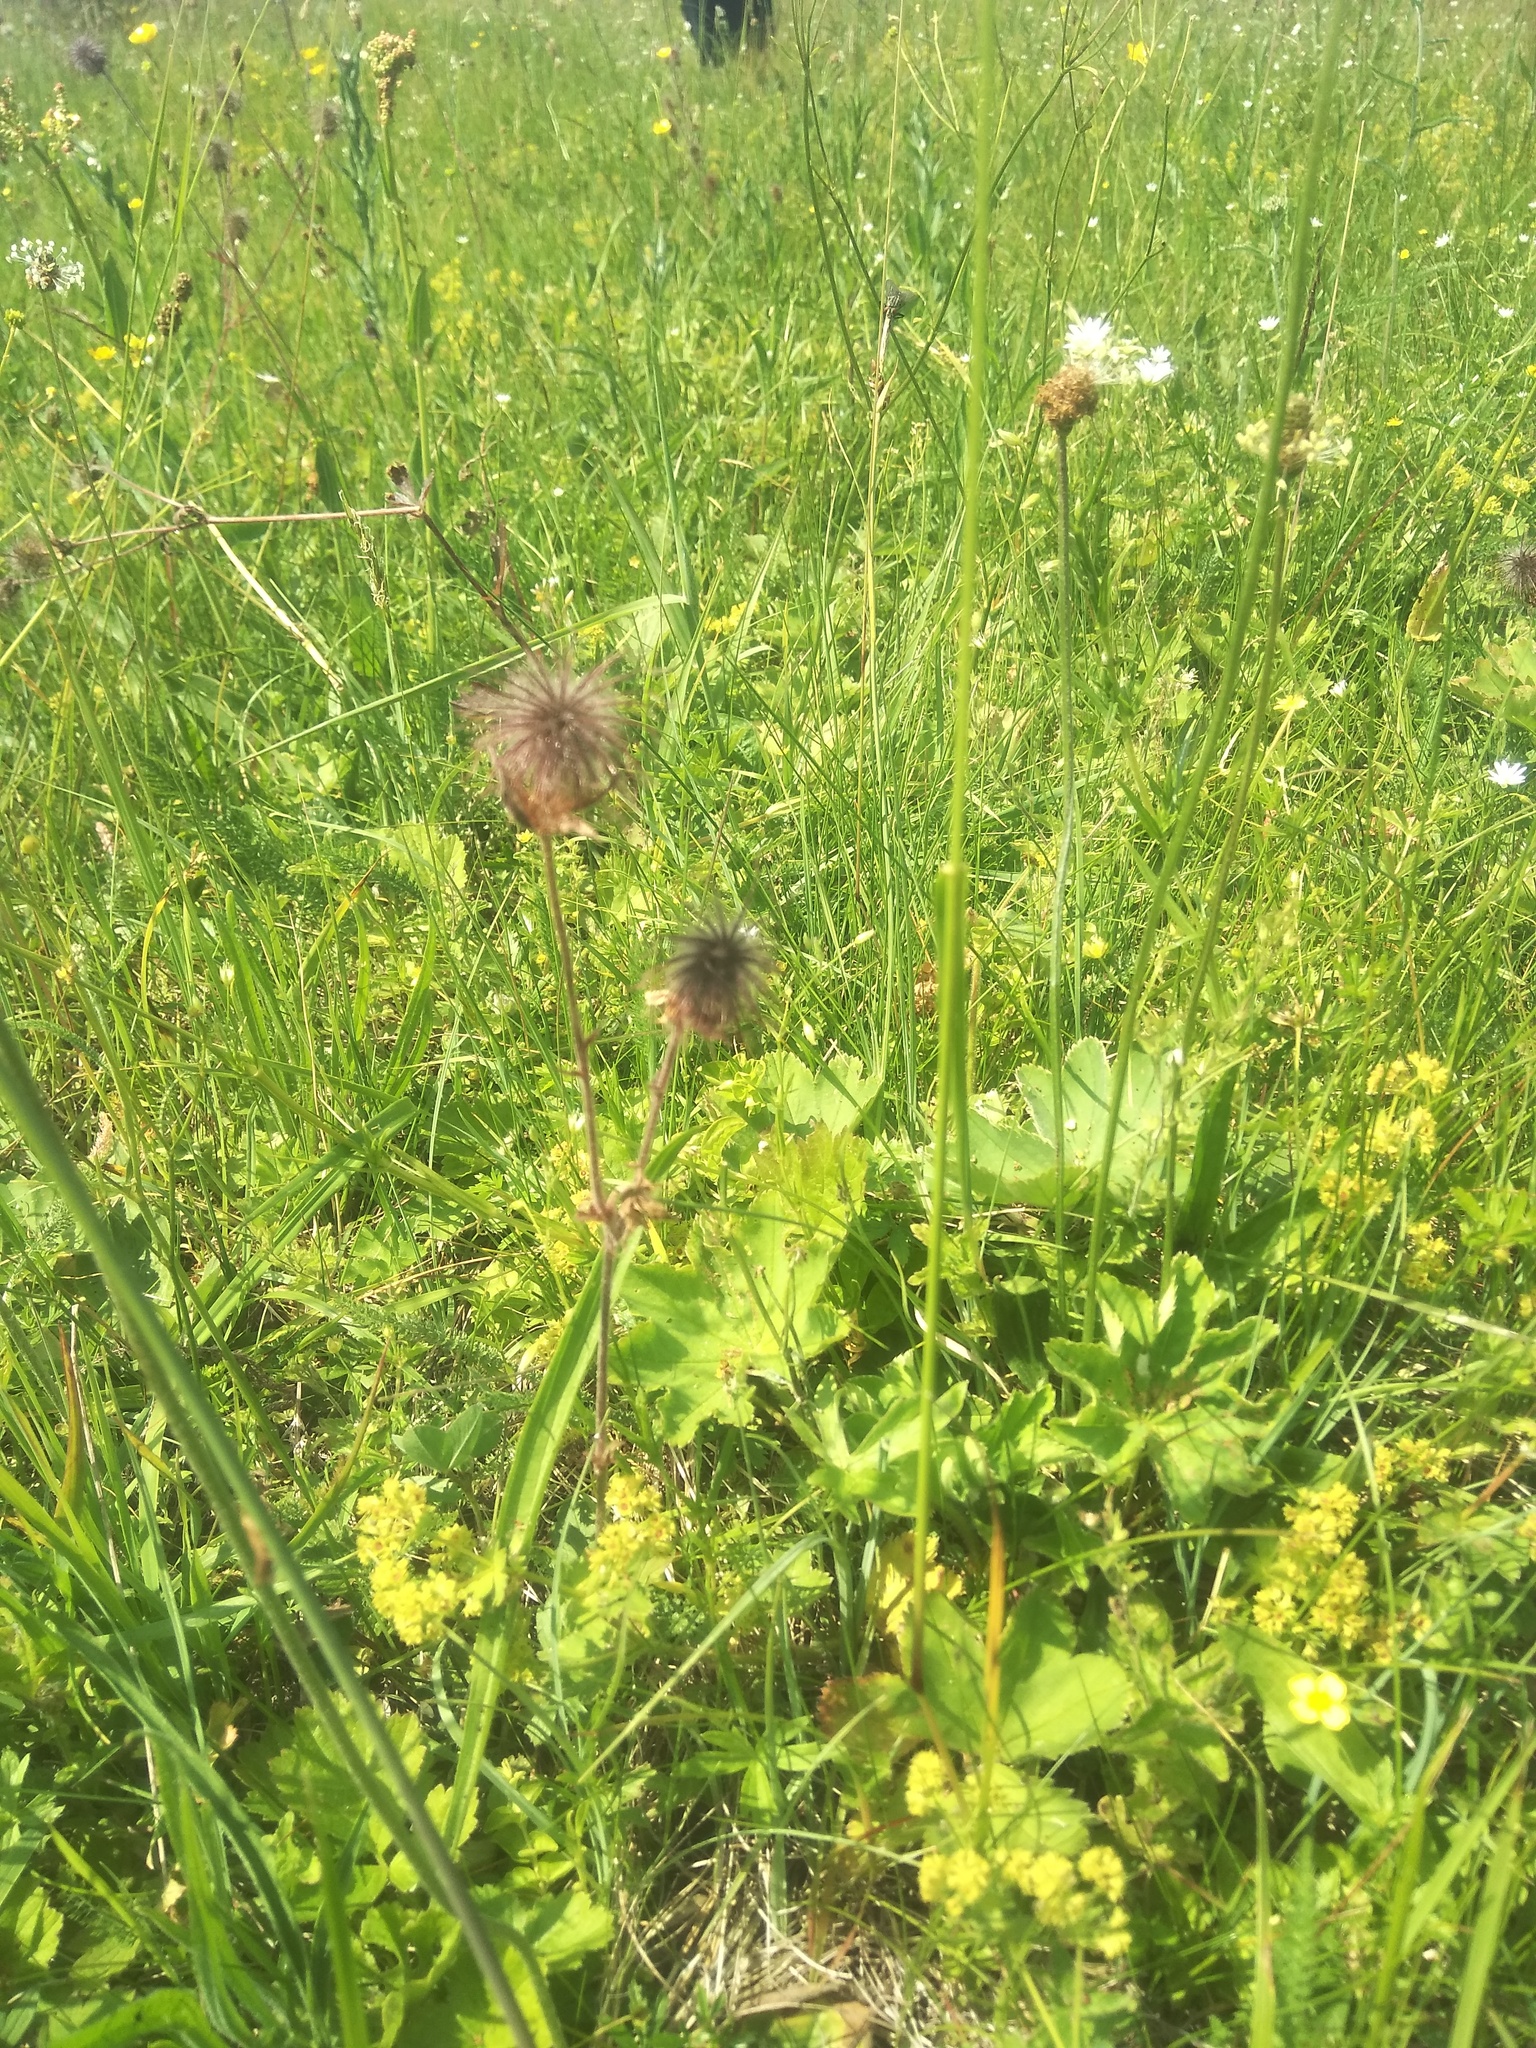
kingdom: Plantae
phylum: Tracheophyta
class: Magnoliopsida
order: Rosales
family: Rosaceae
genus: Geum
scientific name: Geum rivale
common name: Water avens
